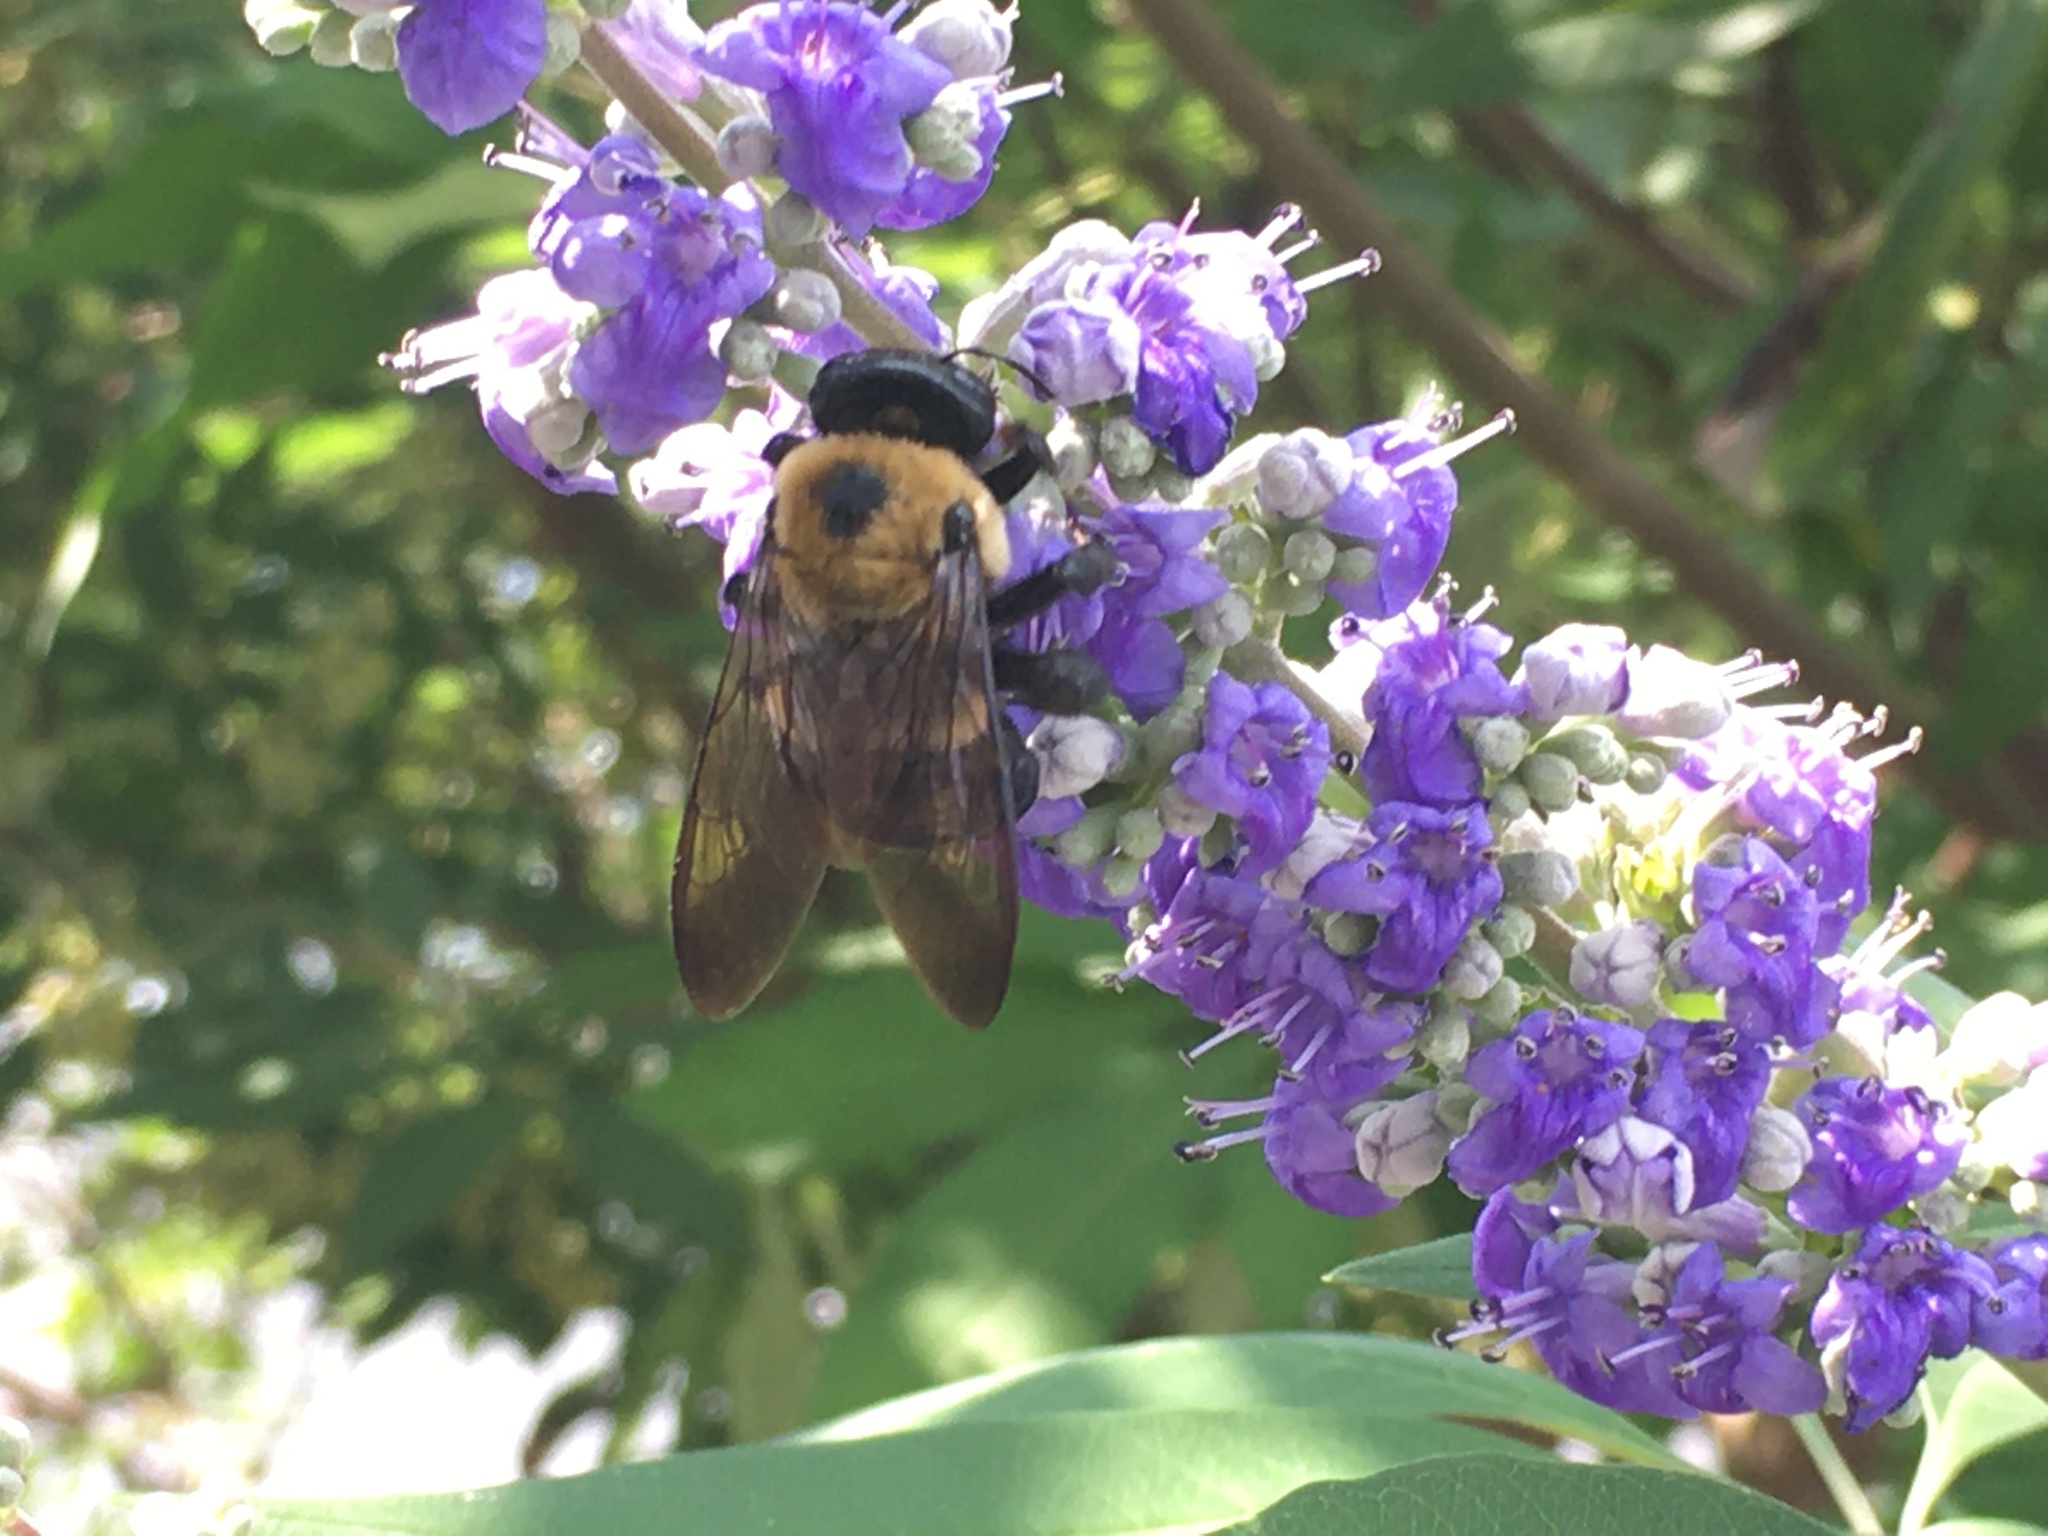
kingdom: Animalia
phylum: Arthropoda
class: Insecta
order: Hymenoptera
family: Apidae
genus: Xylocopa
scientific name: Xylocopa virginica
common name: Carpenter bee
